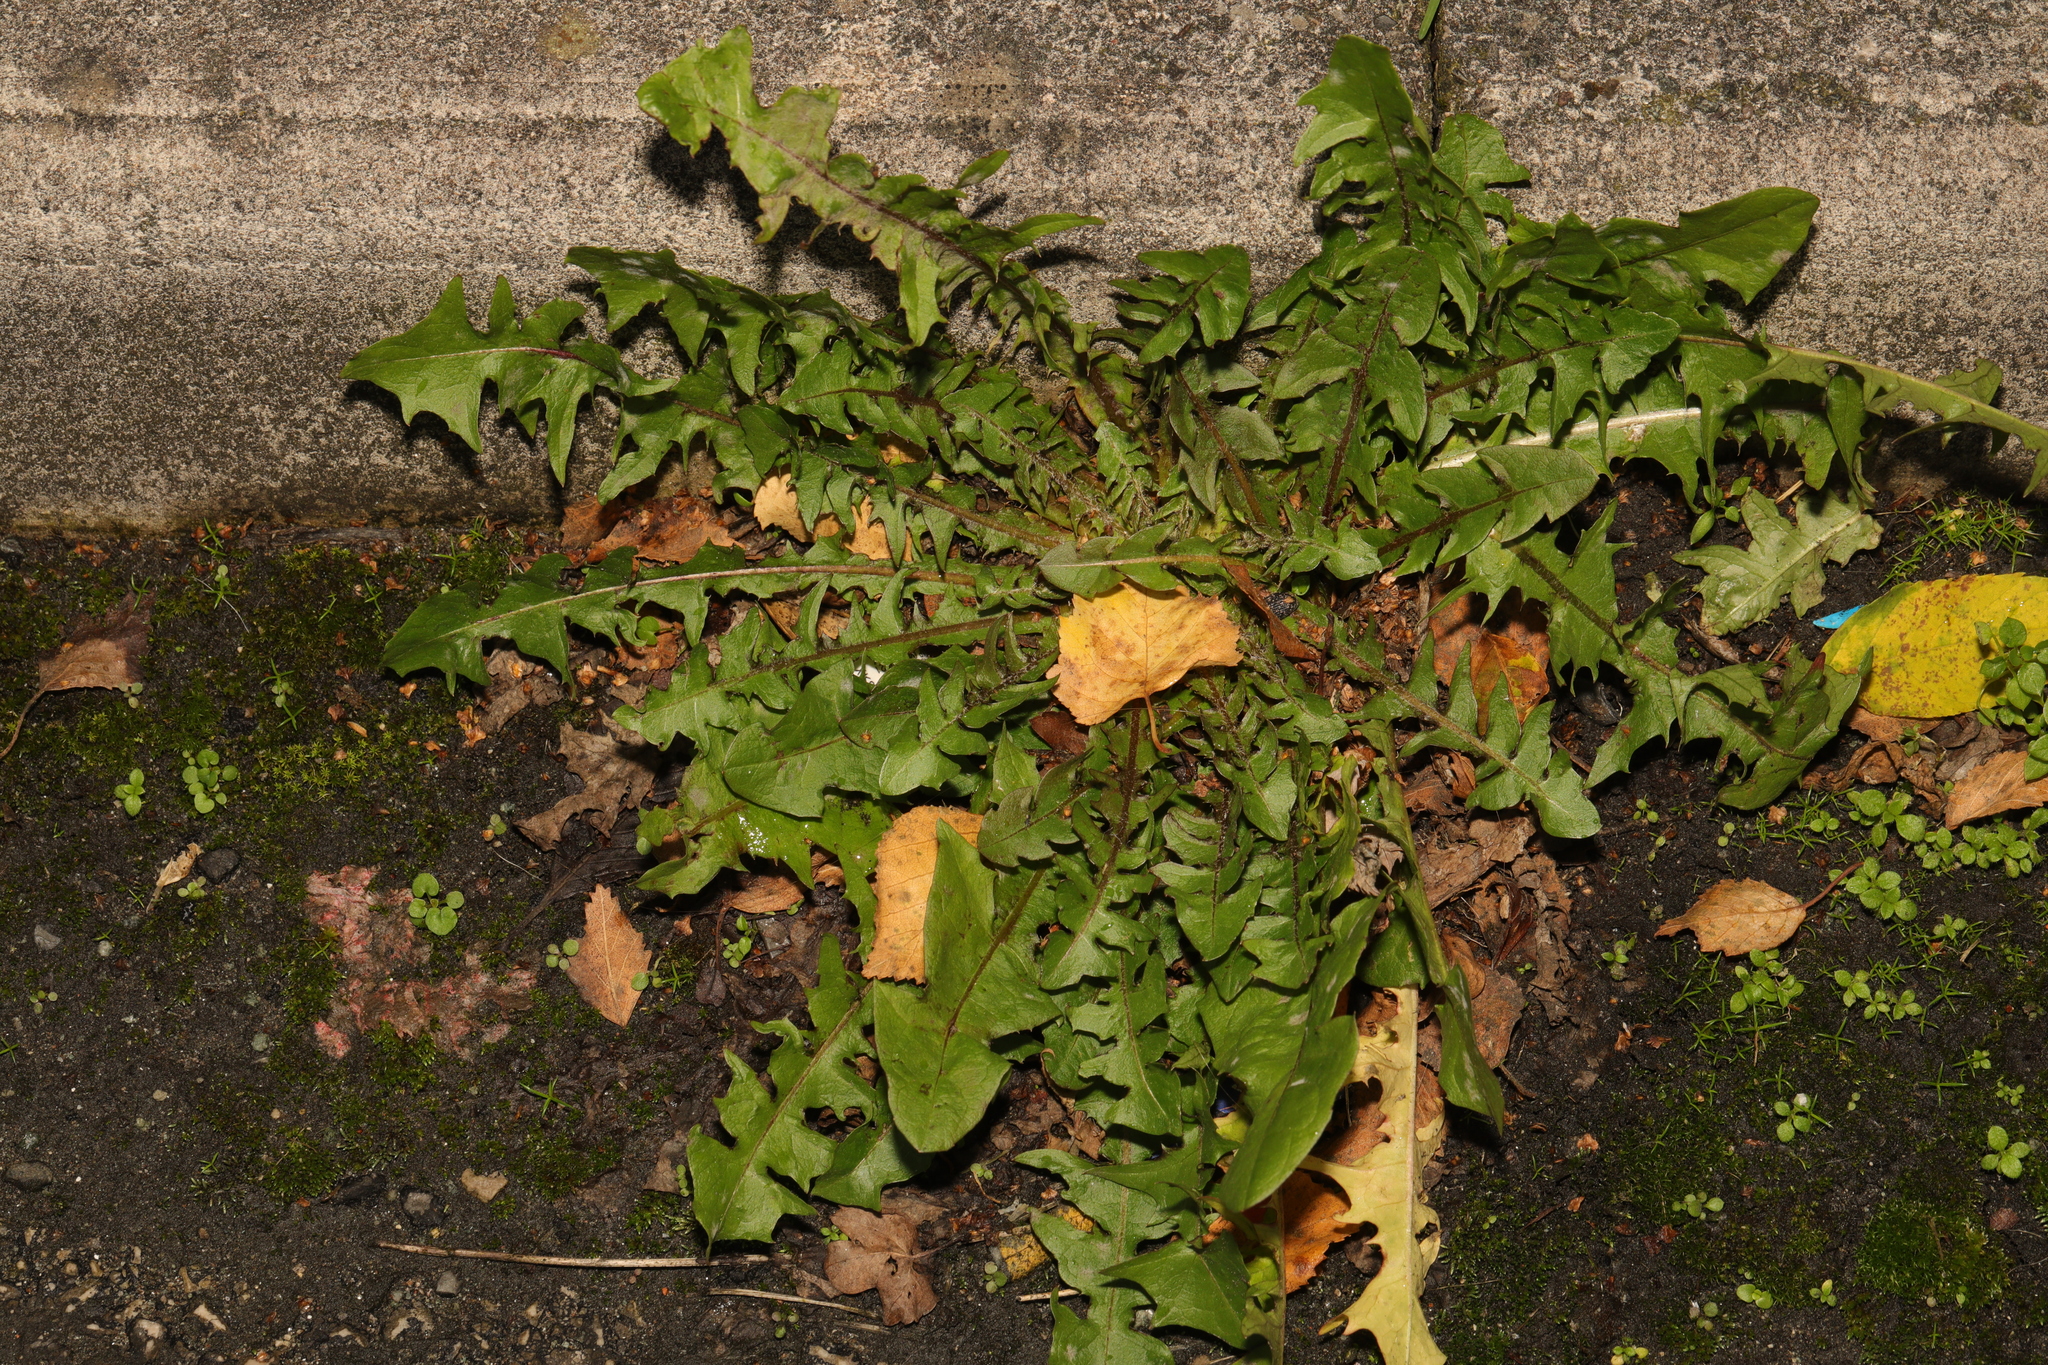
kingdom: Plantae
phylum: Tracheophyta
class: Magnoliopsida
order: Asterales
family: Asteraceae
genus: Taraxacum
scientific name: Taraxacum officinale
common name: Common dandelion
